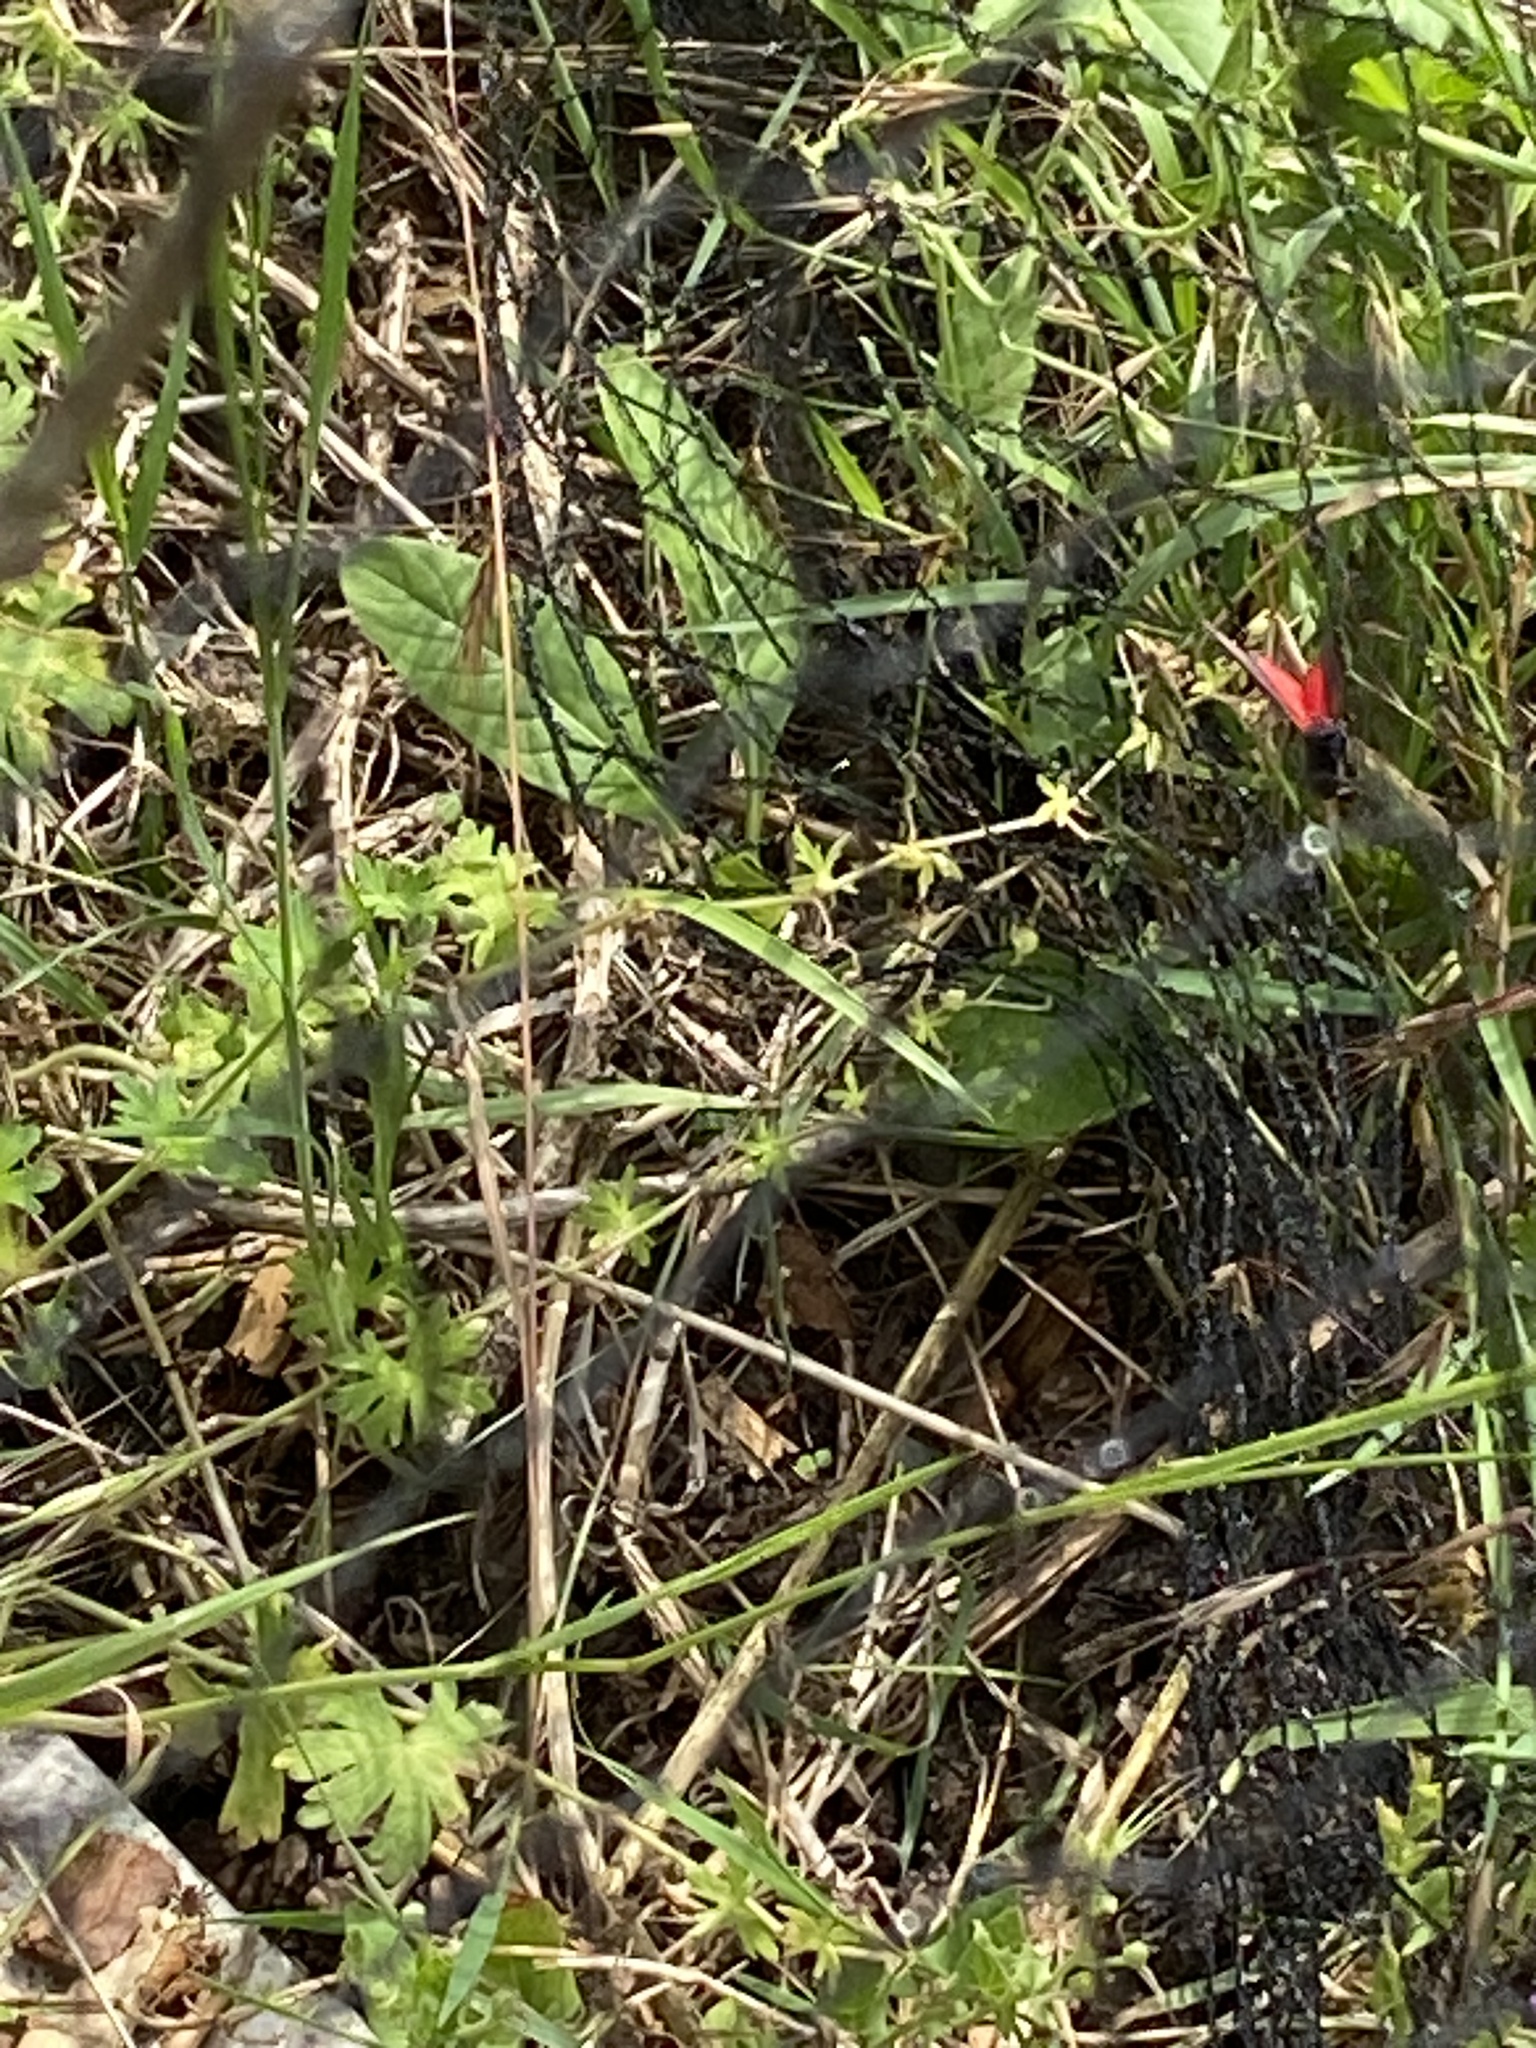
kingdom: Animalia
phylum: Arthropoda
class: Insecta
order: Lepidoptera
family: Erebidae
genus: Tyria
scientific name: Tyria jacobaeae
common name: Cinnabar
